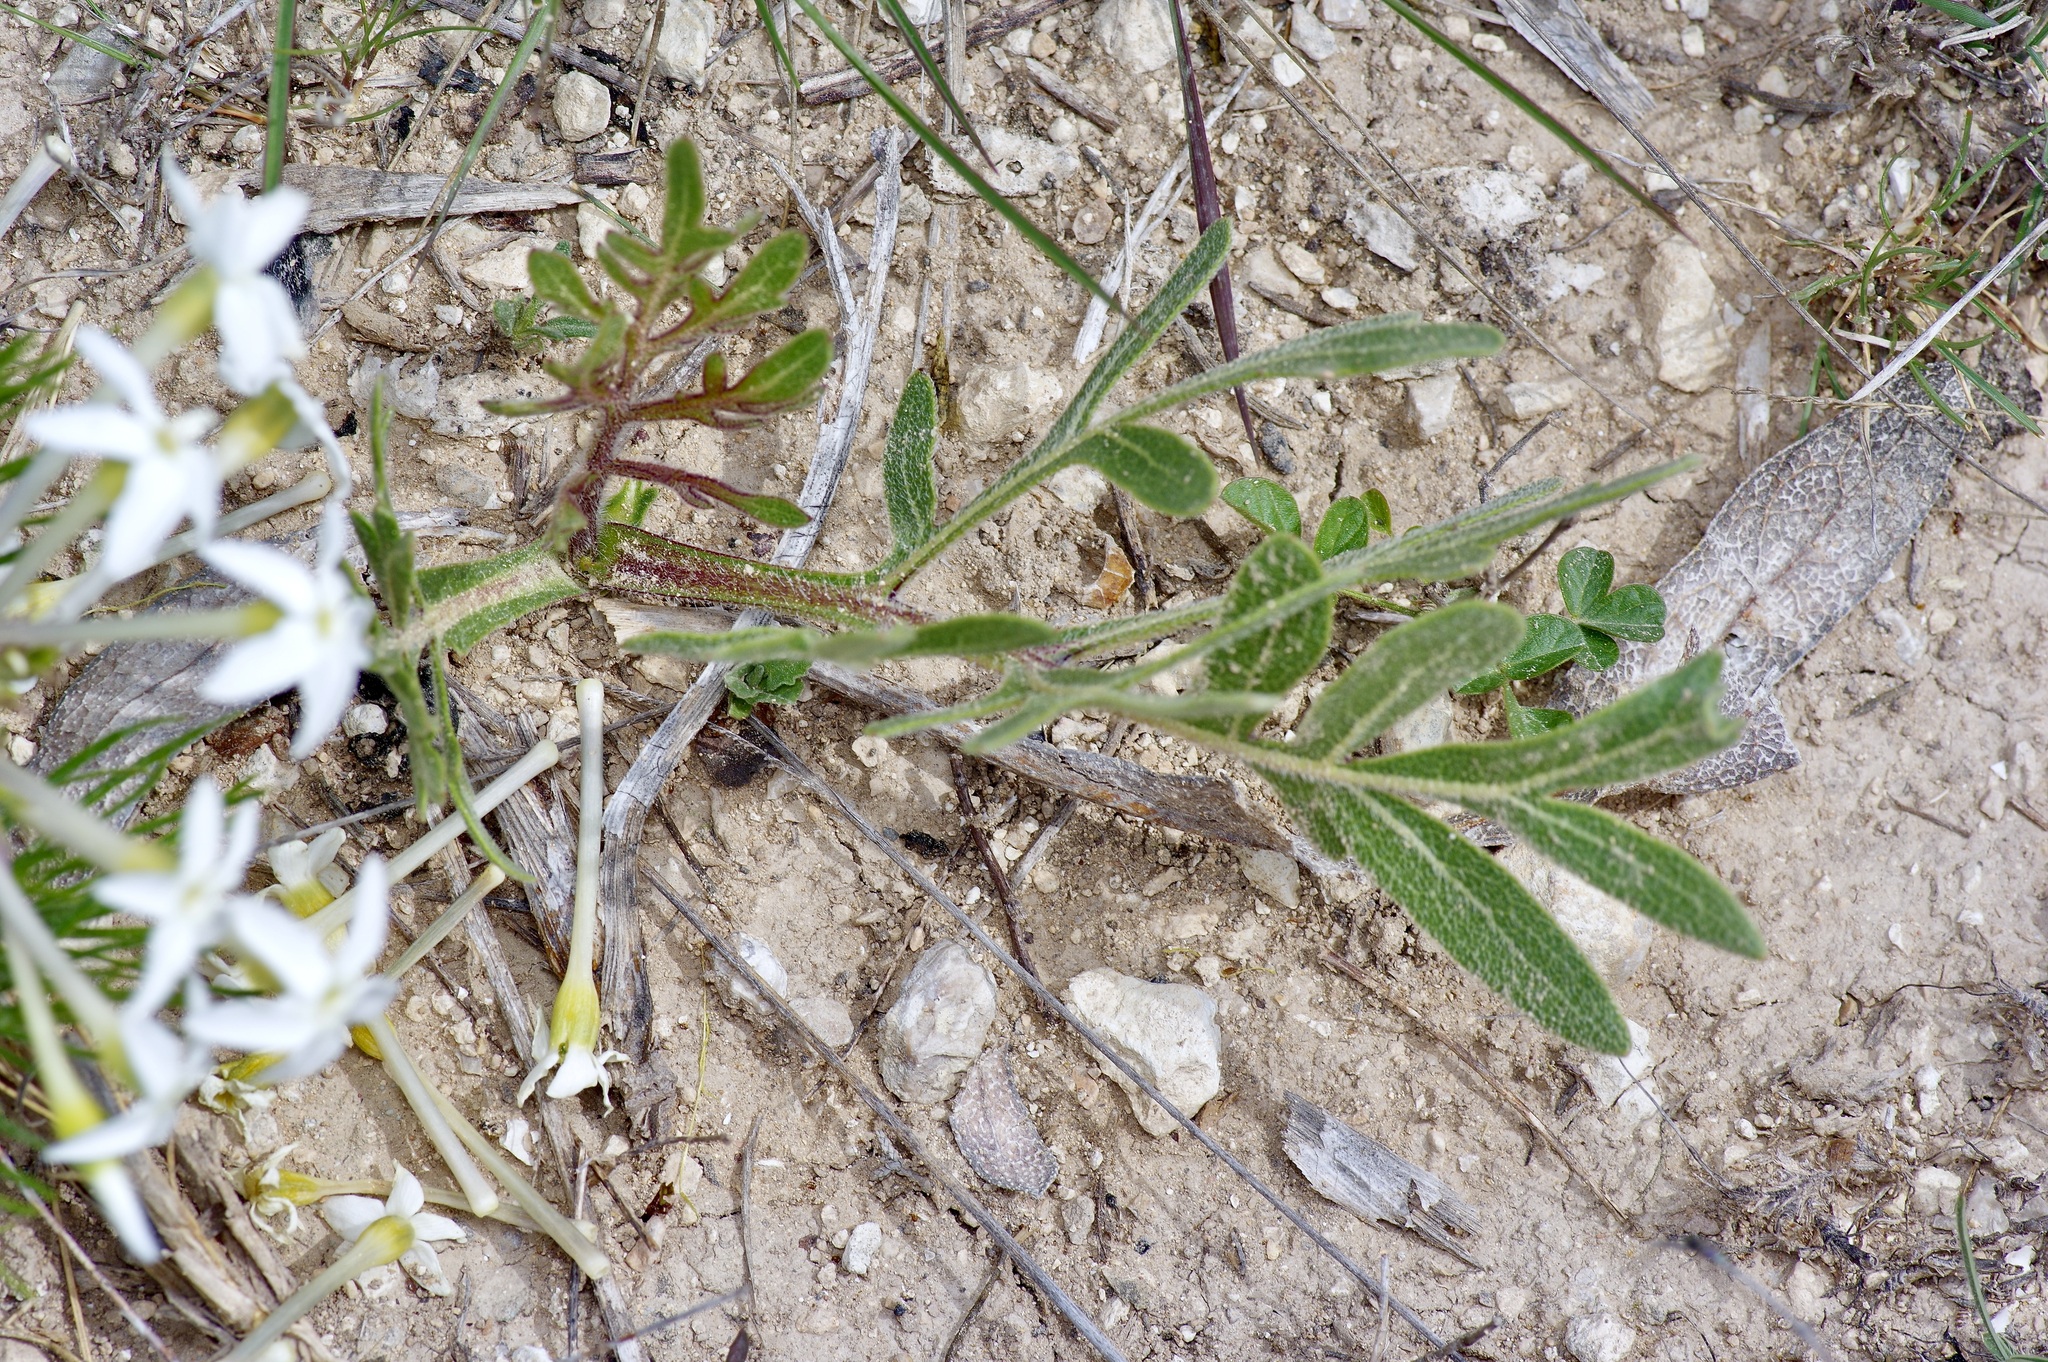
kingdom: Plantae
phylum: Tracheophyta
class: Magnoliopsida
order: Asterales
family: Asteraceae
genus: Silphium
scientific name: Silphium albiflorum
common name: White rosinweed
